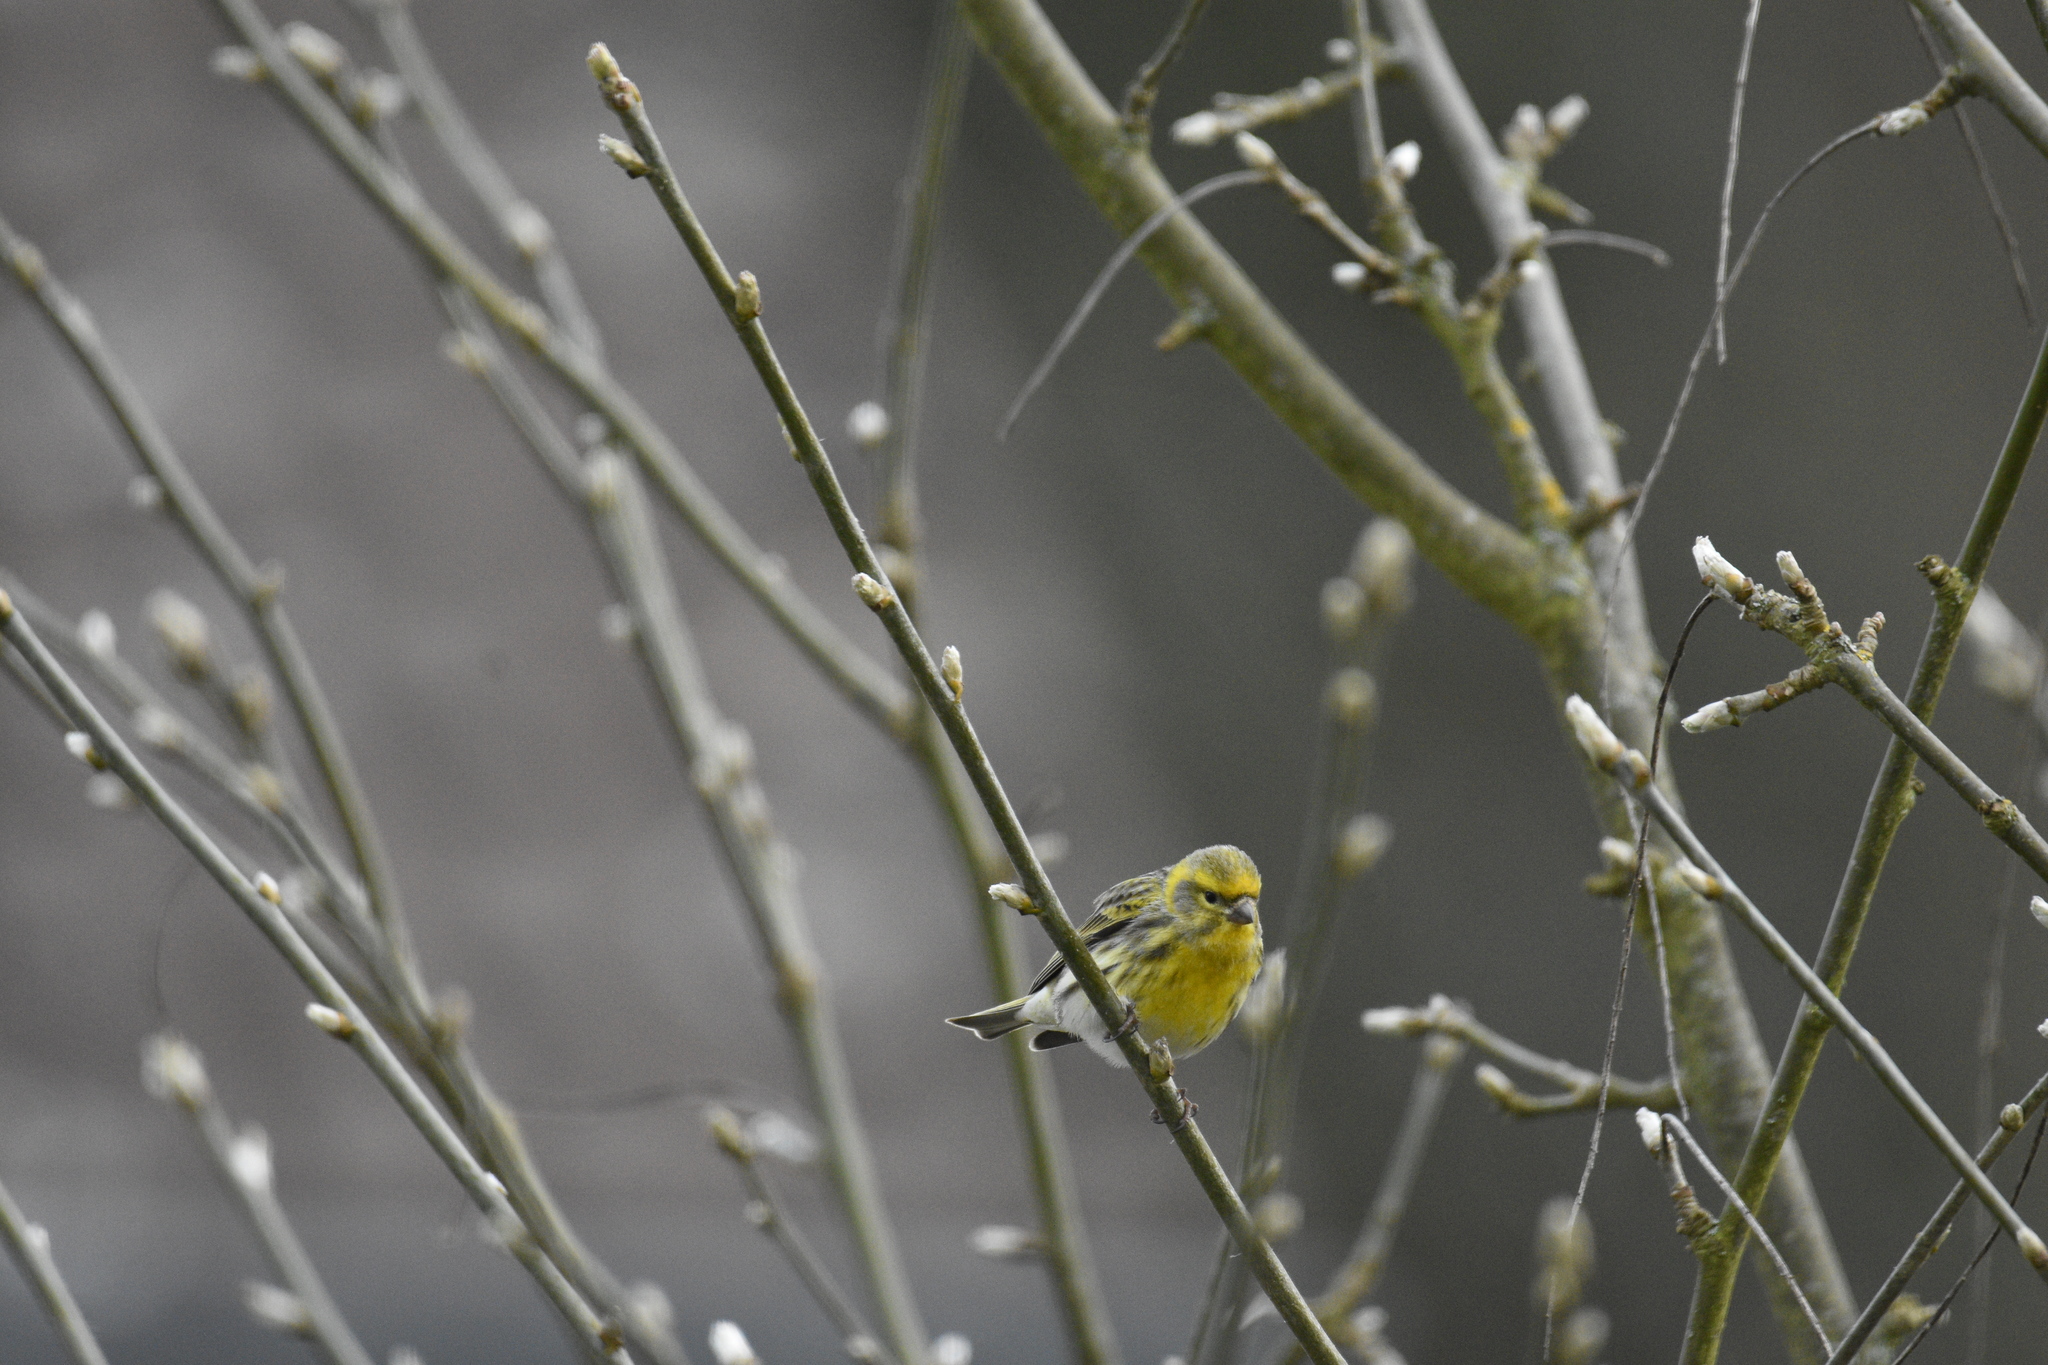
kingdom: Animalia
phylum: Chordata
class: Aves
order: Passeriformes
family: Fringillidae
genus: Serinus
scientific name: Serinus serinus
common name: European serin
